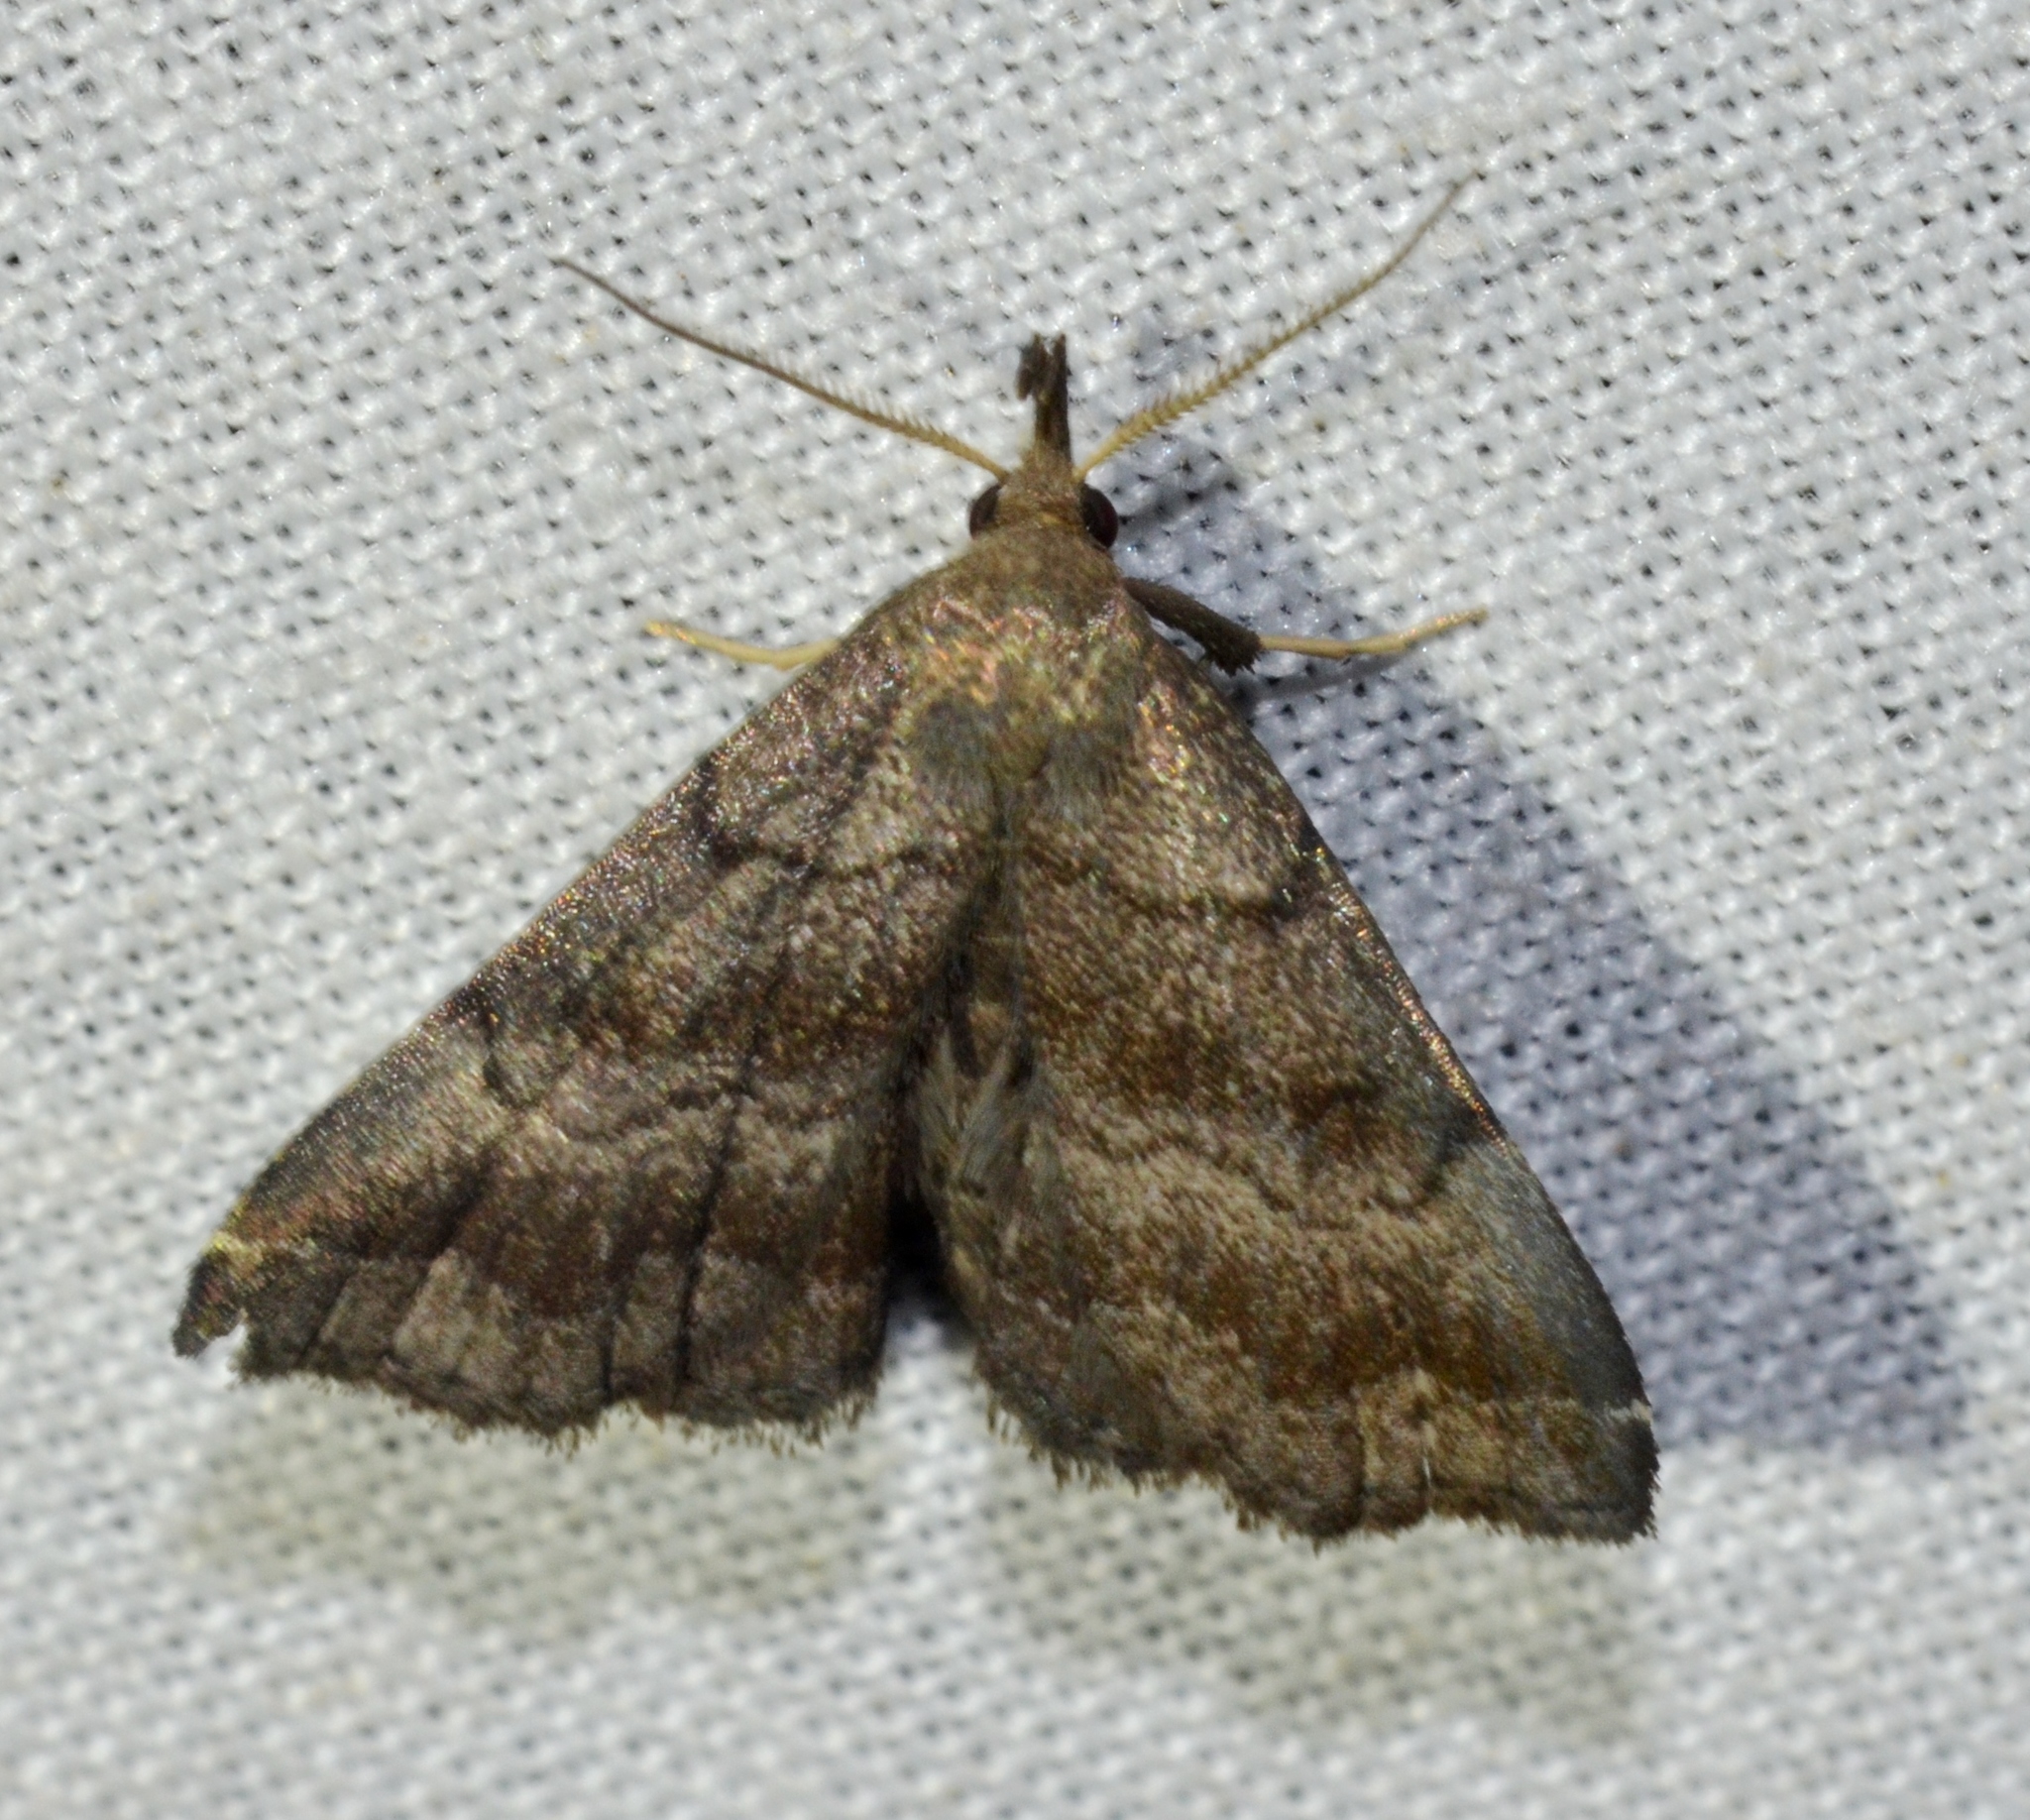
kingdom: Animalia
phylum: Arthropoda
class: Insecta
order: Lepidoptera
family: Erebidae
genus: Phalaenostola
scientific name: Phalaenostola larentioides
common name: Black-banded owlet
